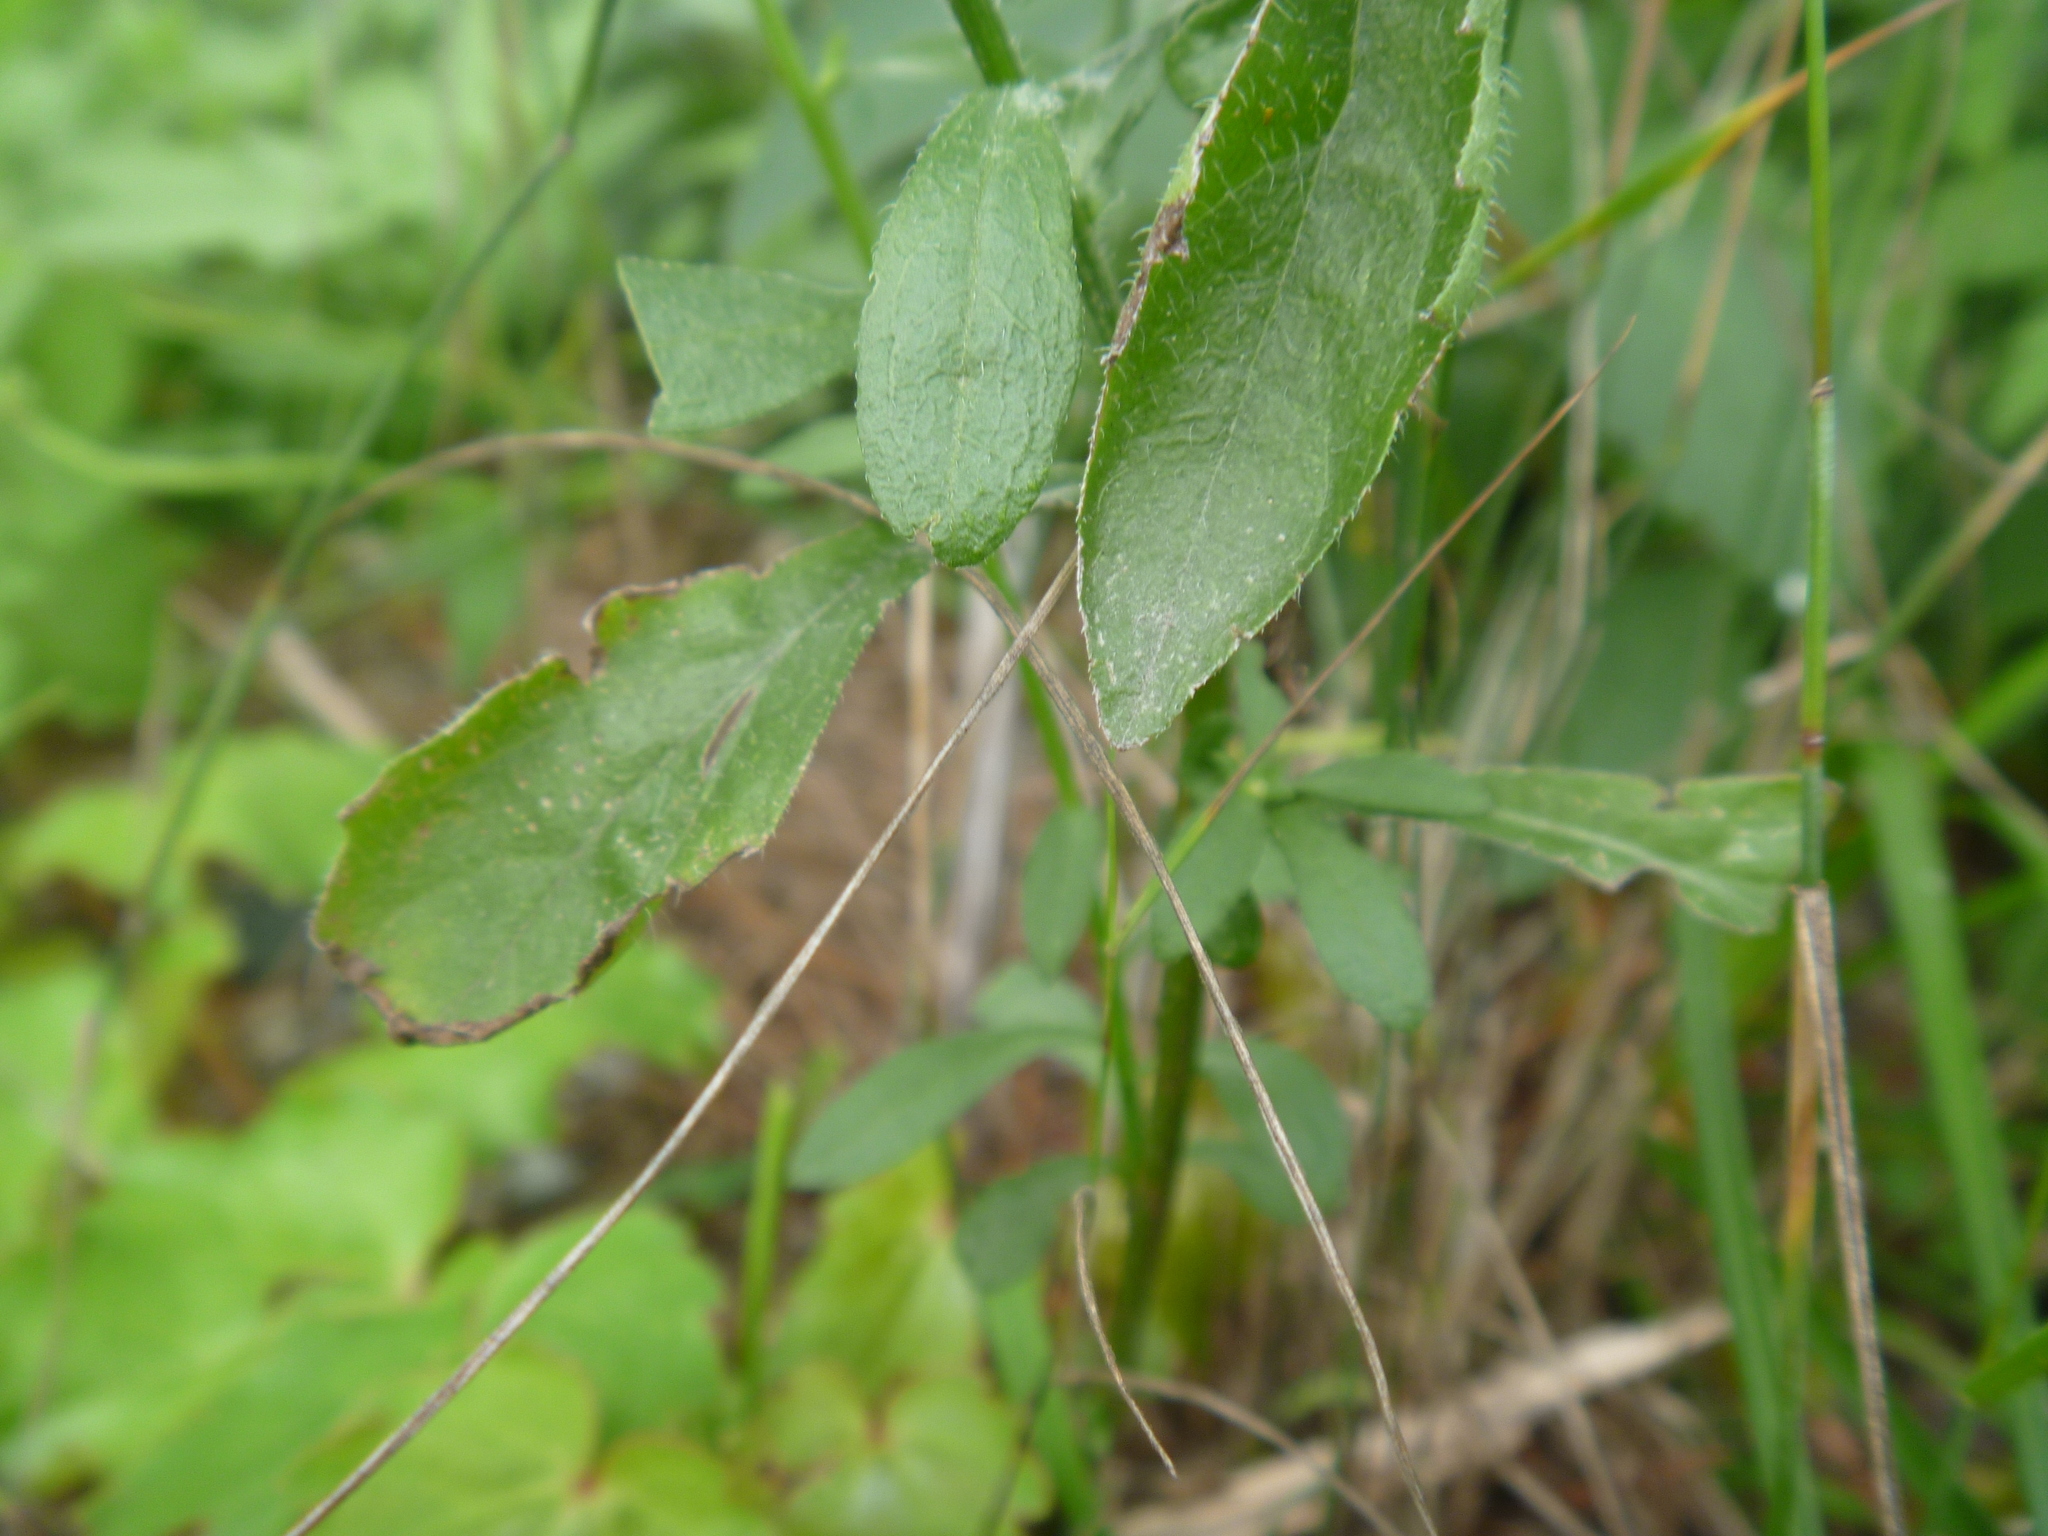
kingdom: Plantae
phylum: Tracheophyta
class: Magnoliopsida
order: Asterales
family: Asteraceae
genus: Erigeron
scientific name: Erigeron annuus
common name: Tall fleabane
